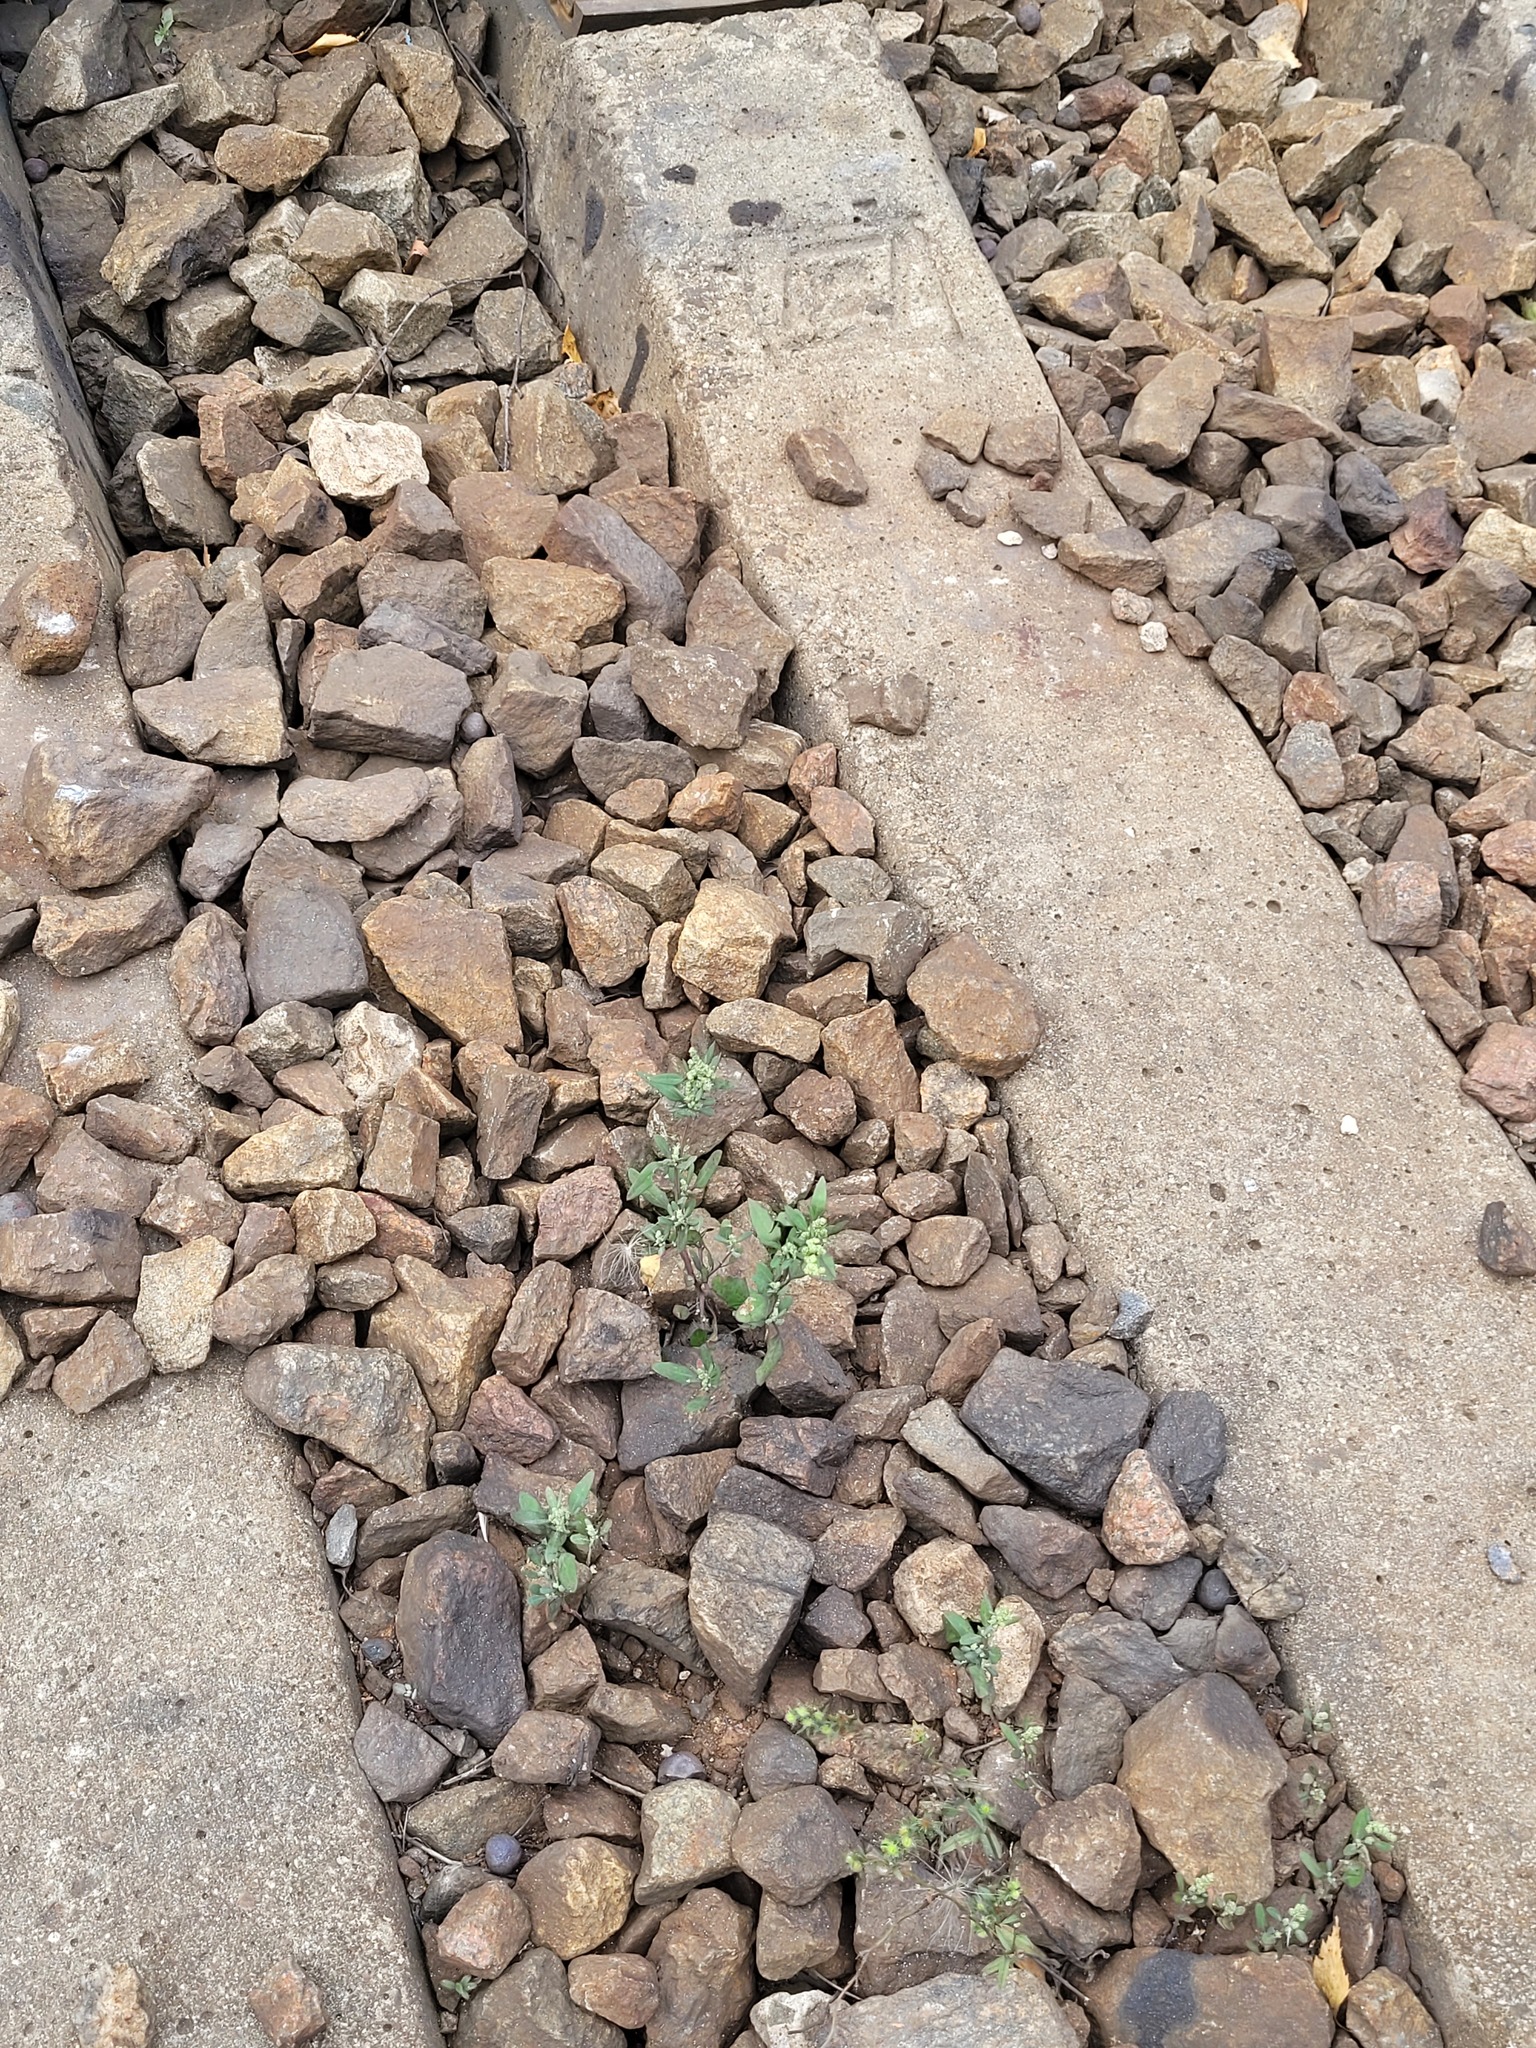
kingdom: Plantae
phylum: Tracheophyta
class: Magnoliopsida
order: Caryophyllales
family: Amaranthaceae
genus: Chenopodium
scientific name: Chenopodium betaceum
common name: Striped goosefoot
